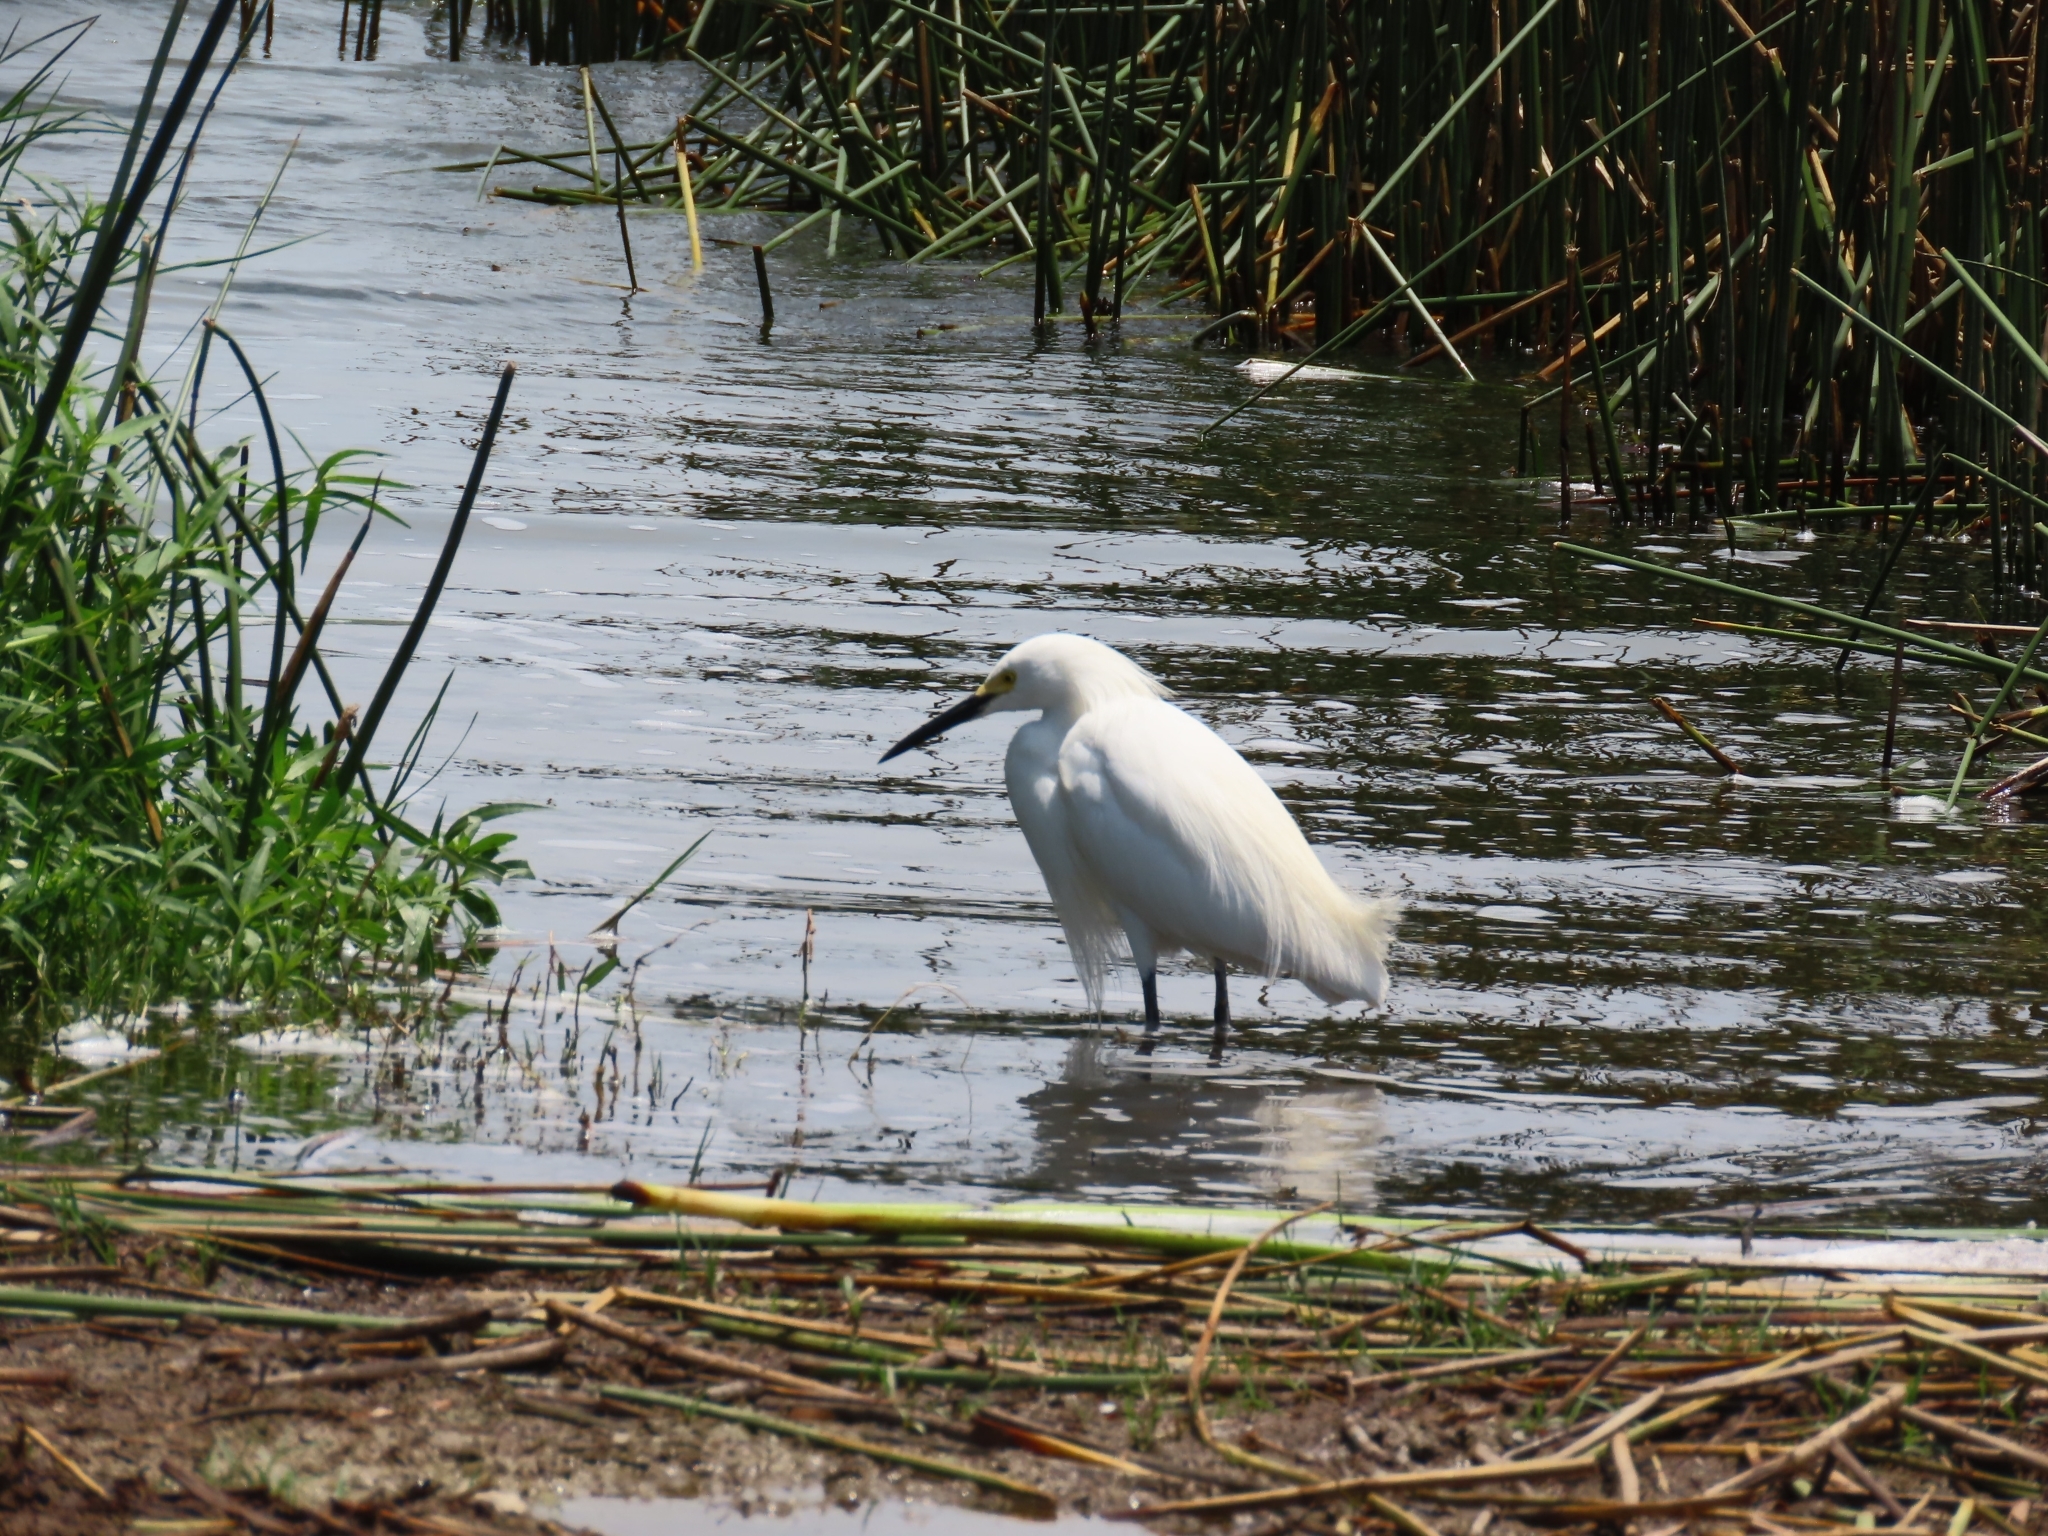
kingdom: Animalia
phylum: Chordata
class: Aves
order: Pelecaniformes
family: Ardeidae
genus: Egretta
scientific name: Egretta thula
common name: Snowy egret
